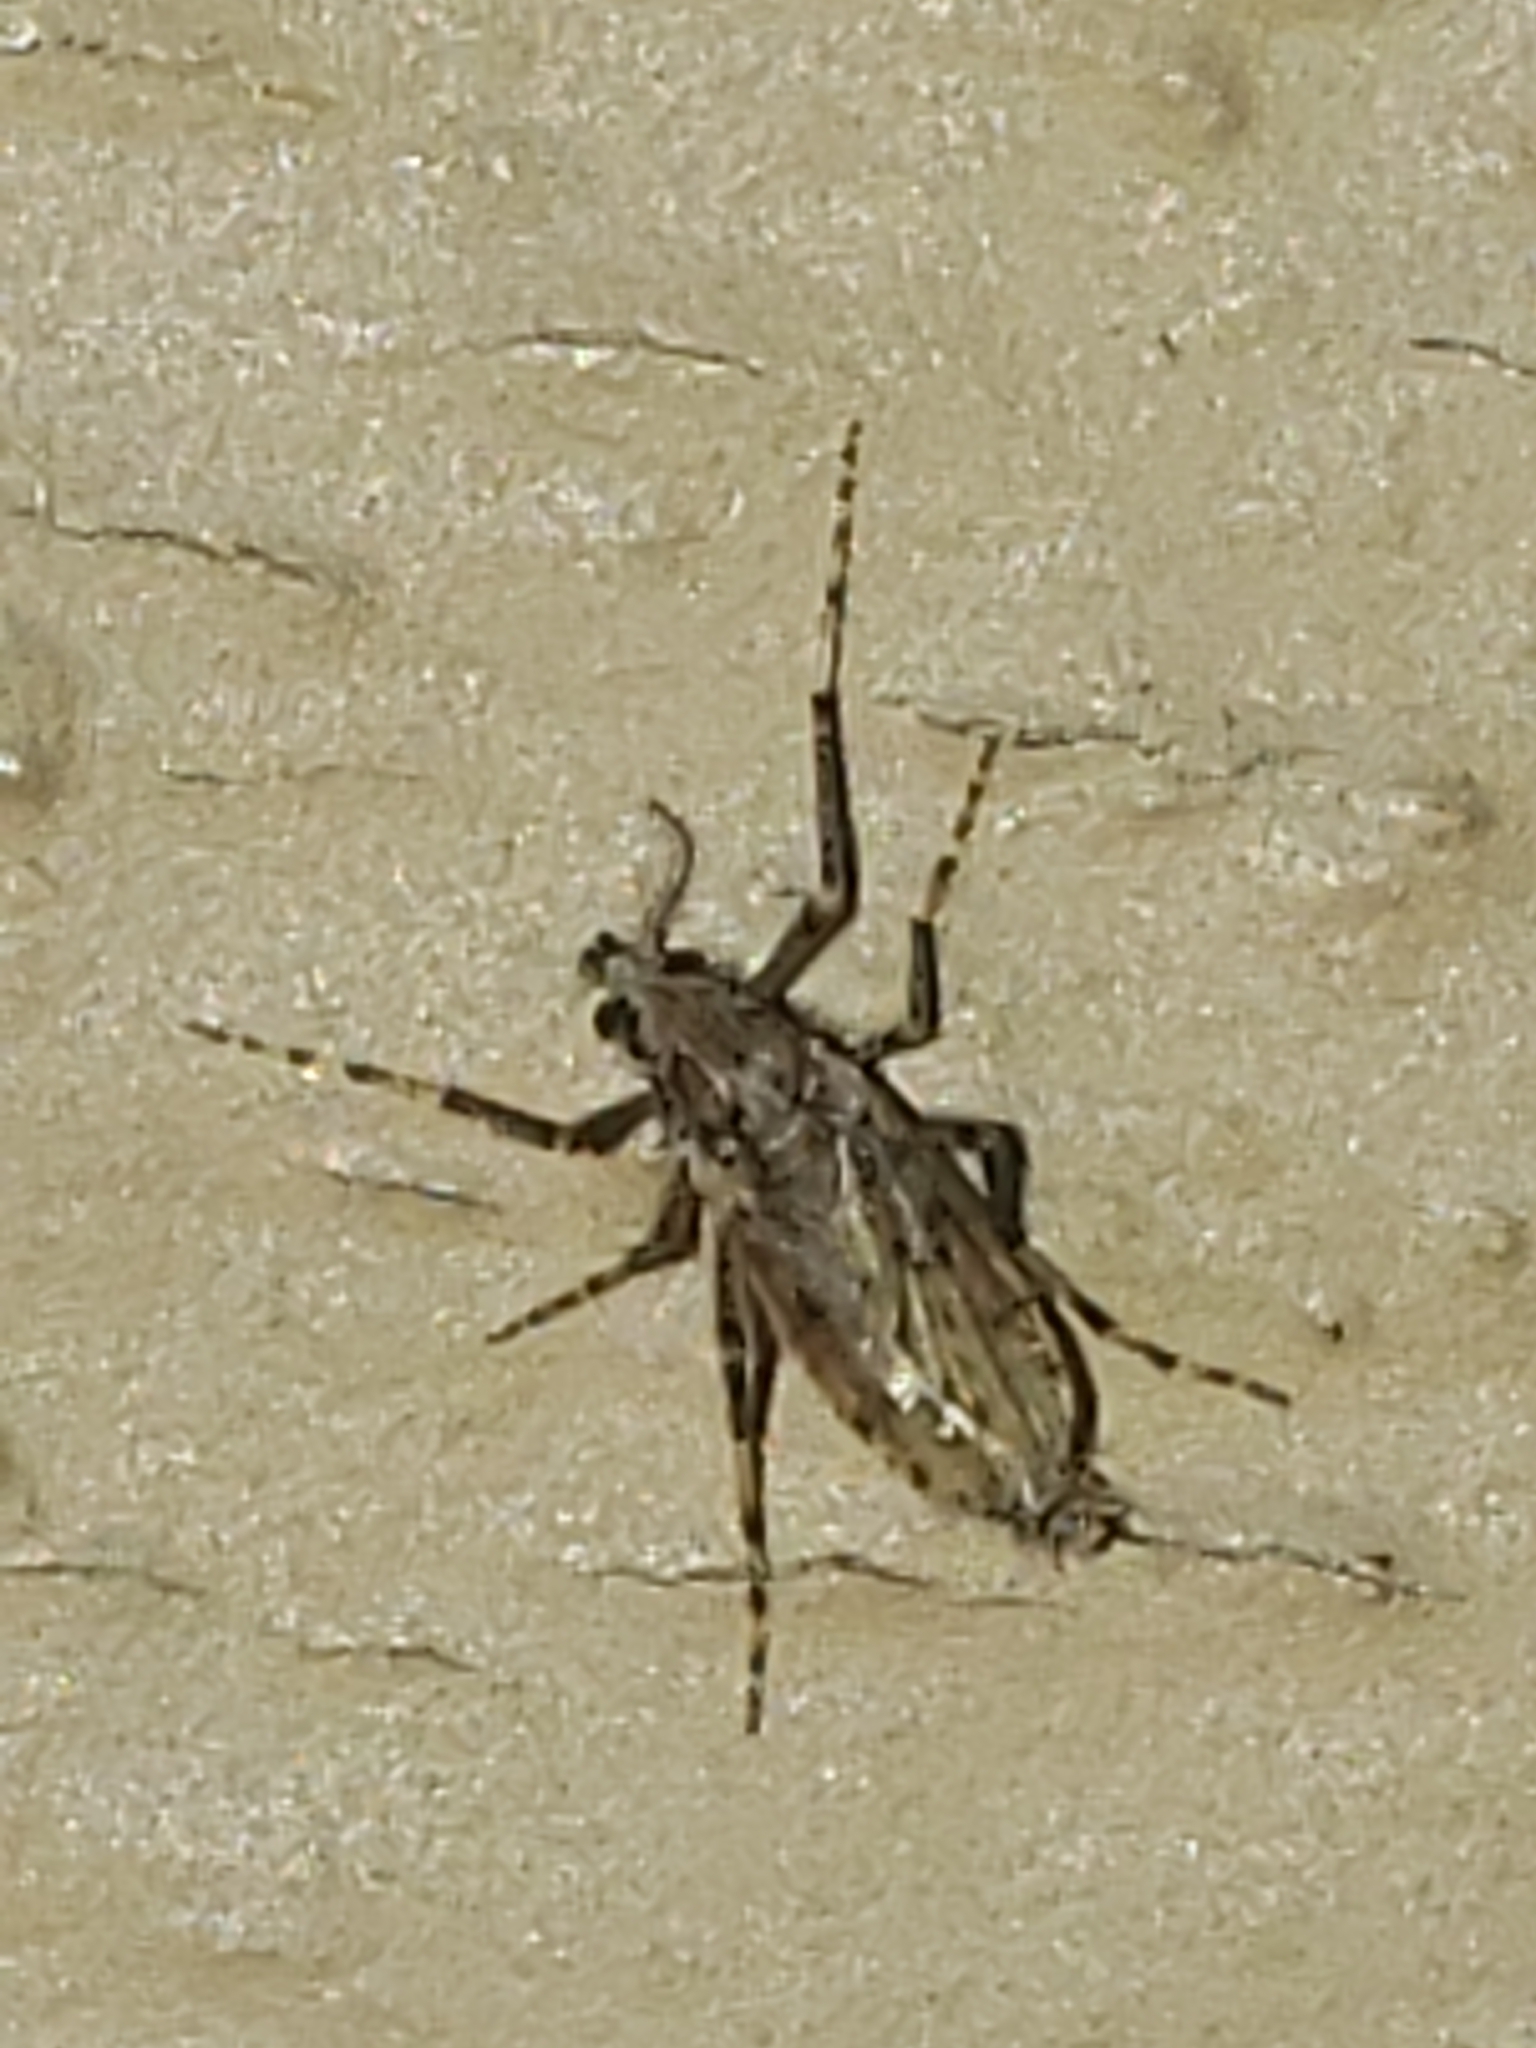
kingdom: Animalia
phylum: Arthropoda
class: Insecta
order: Diptera
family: Chaoboridae
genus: Chaoborus
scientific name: Chaoborus punctipennis
